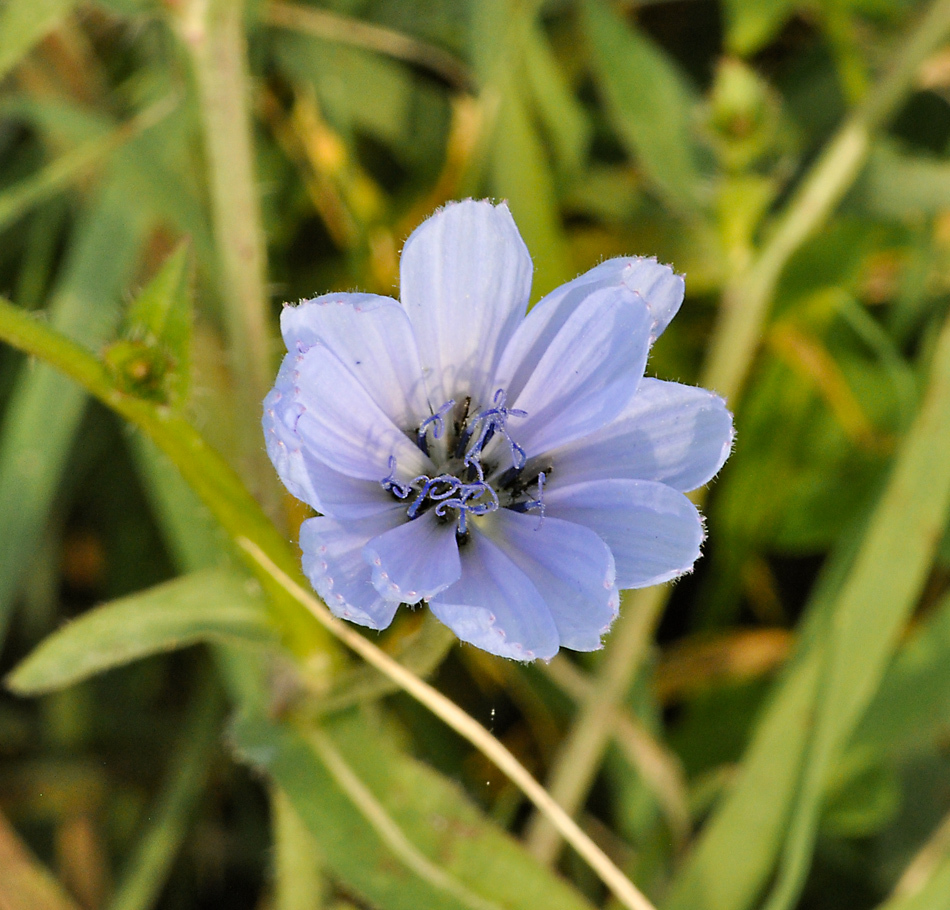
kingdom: Plantae
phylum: Tracheophyta
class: Magnoliopsida
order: Asterales
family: Asteraceae
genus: Cichorium
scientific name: Cichorium intybus
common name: Chicory
